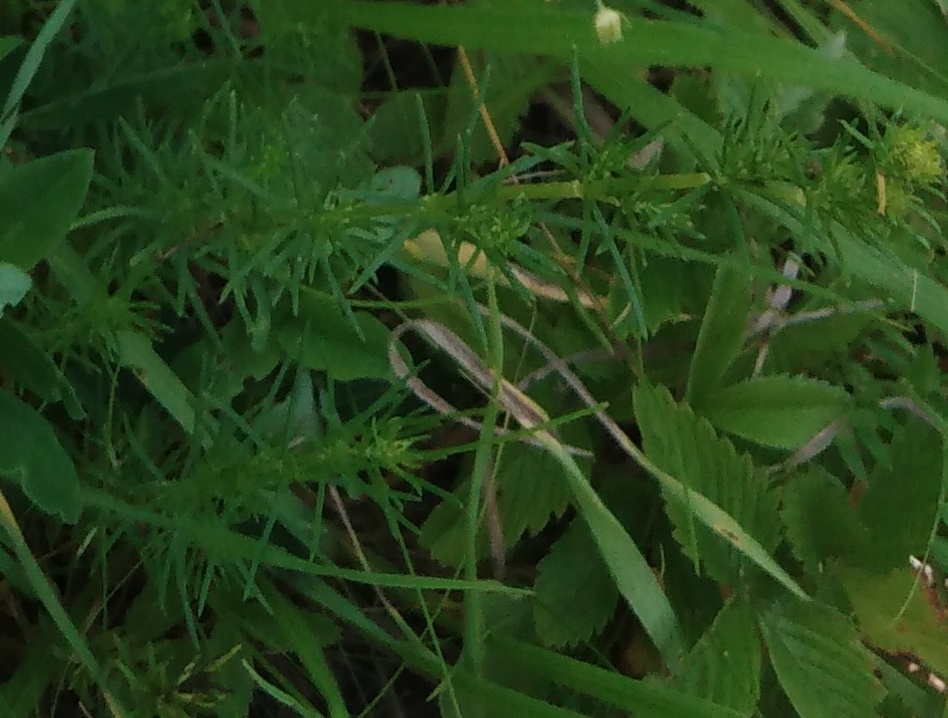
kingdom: Plantae
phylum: Tracheophyta
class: Magnoliopsida
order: Gentianales
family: Rubiaceae
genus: Galium
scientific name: Galium verum
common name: Lady's bedstraw
